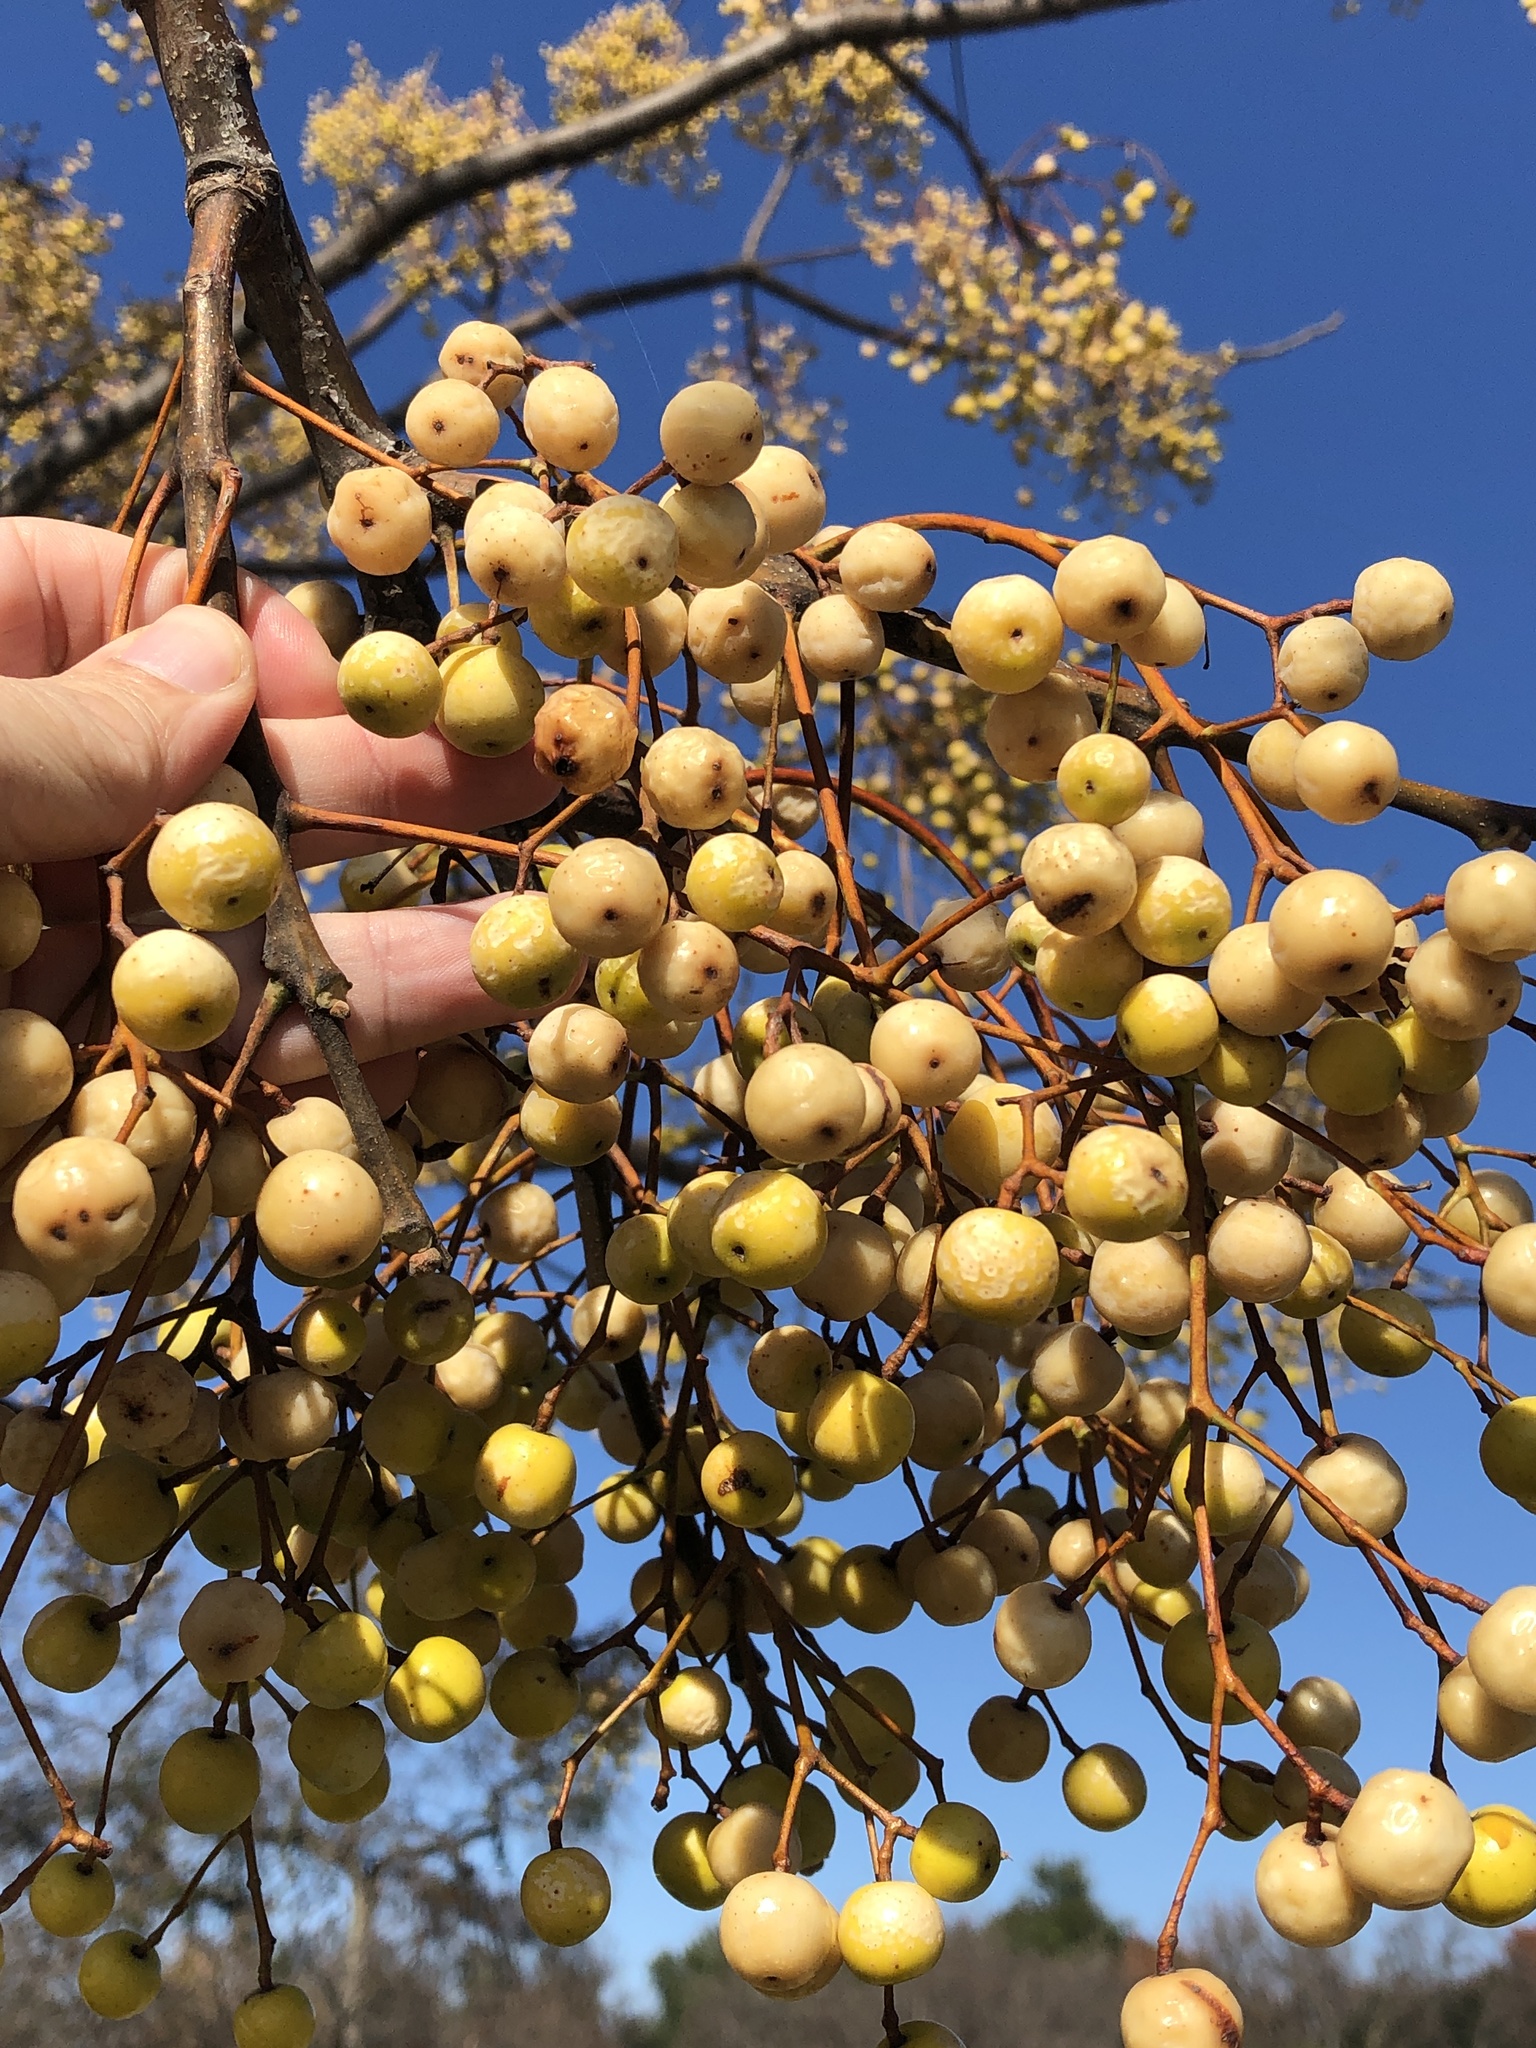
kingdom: Plantae
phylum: Tracheophyta
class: Magnoliopsida
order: Sapindales
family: Meliaceae
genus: Melia
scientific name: Melia azedarach
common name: Chinaberrytree
